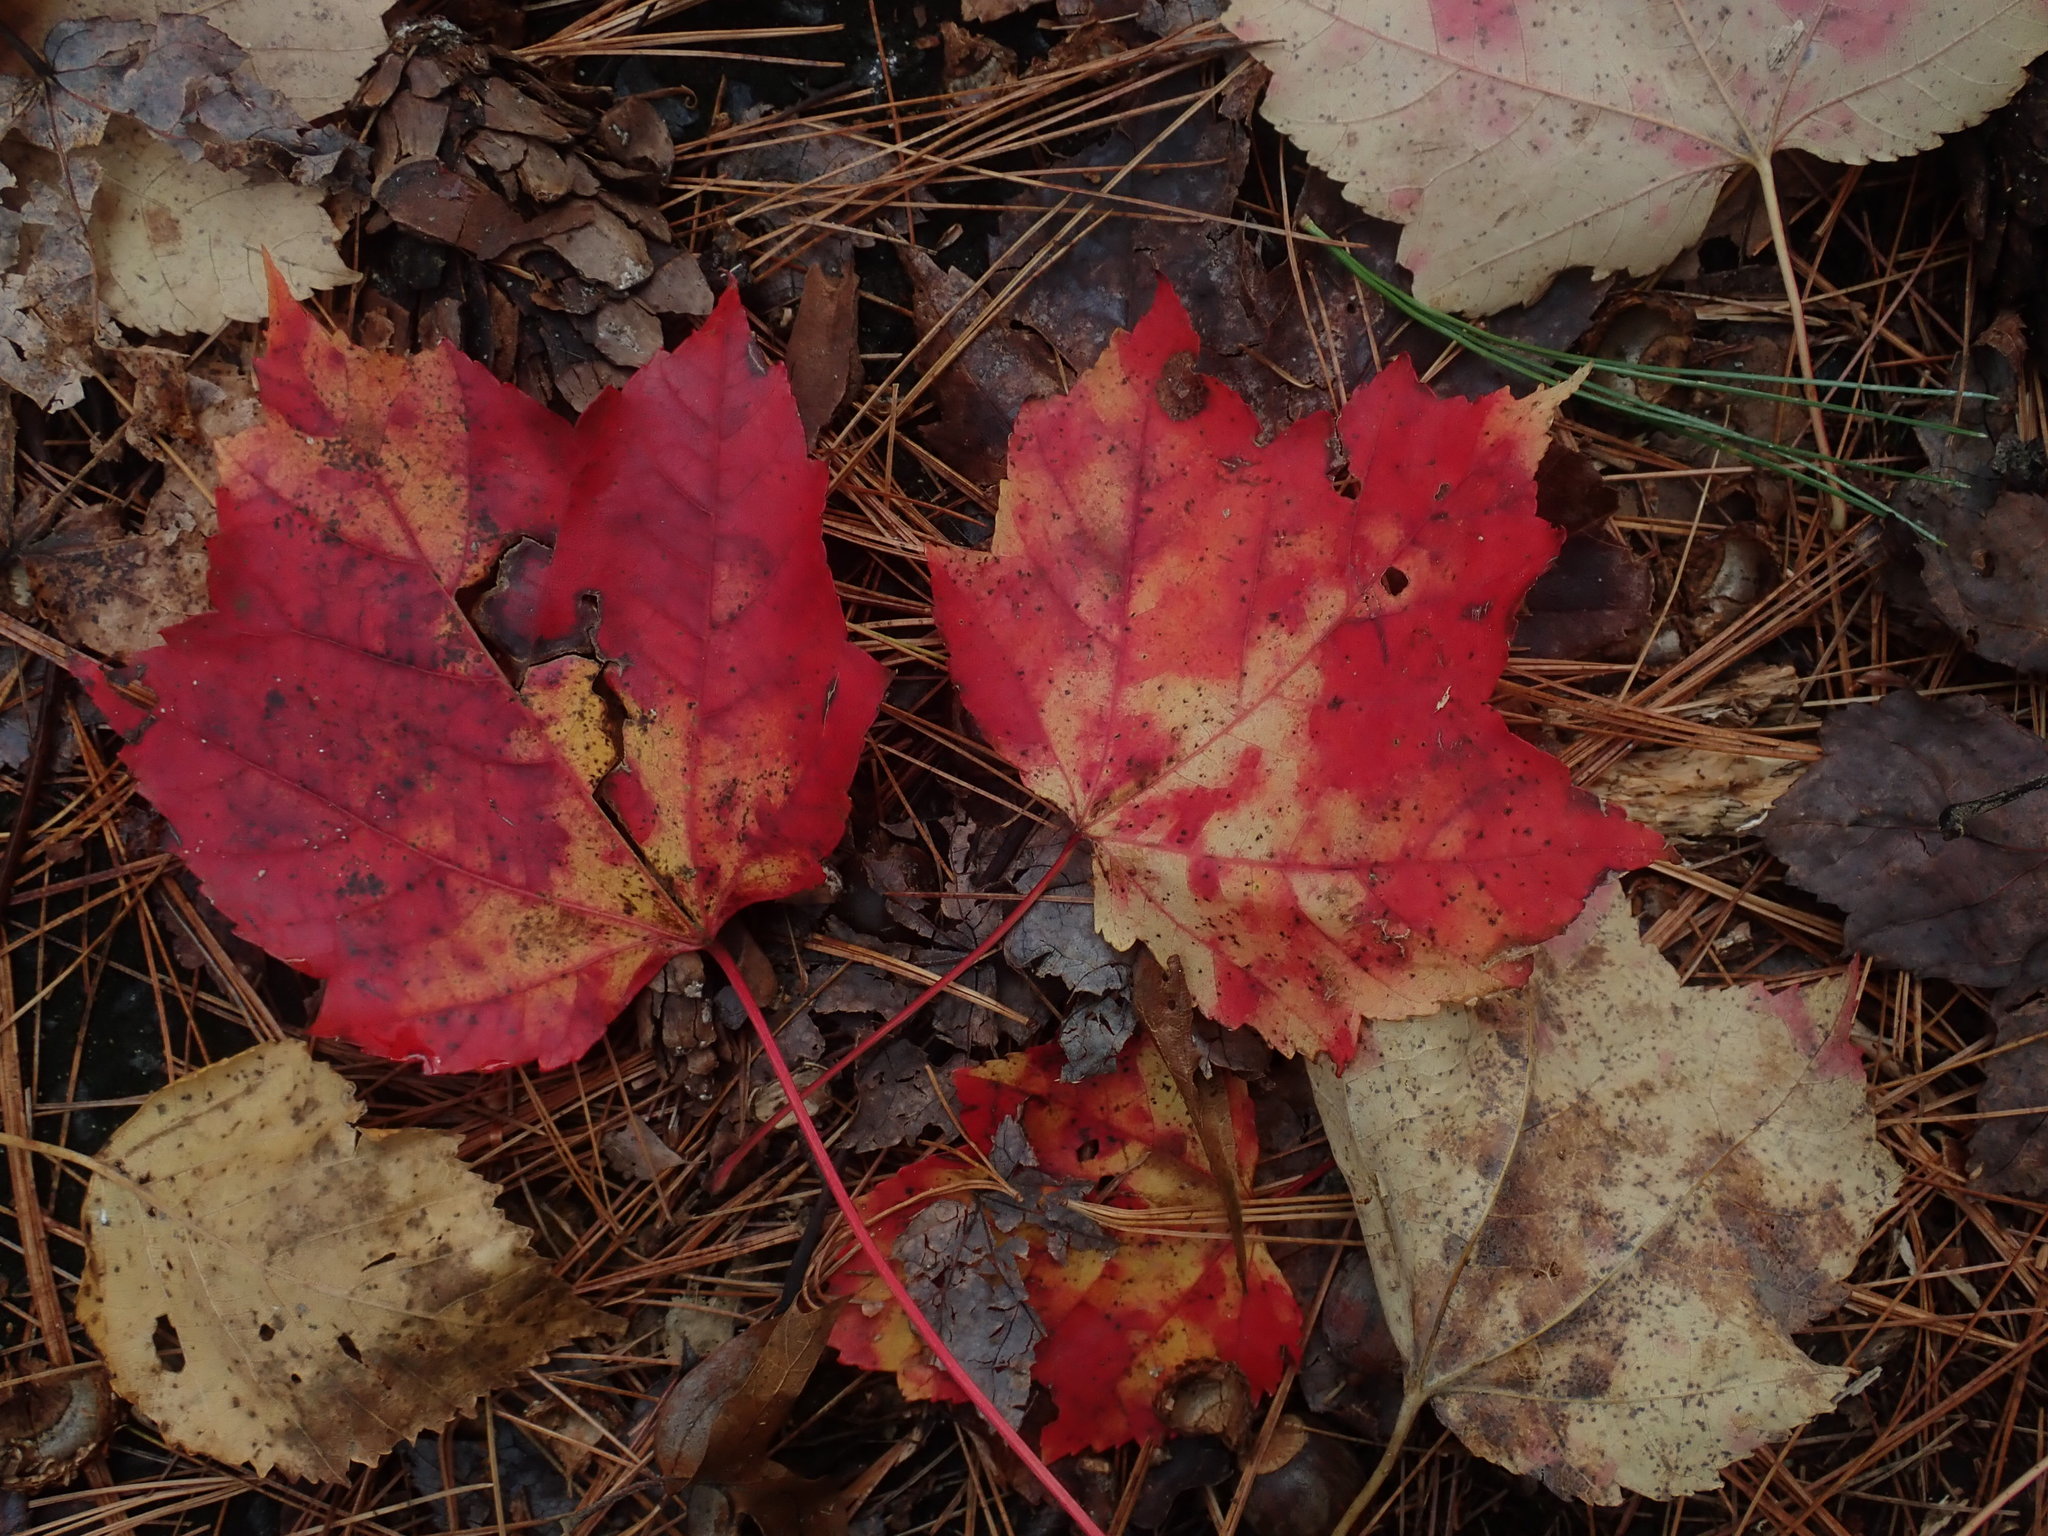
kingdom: Plantae
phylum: Tracheophyta
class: Magnoliopsida
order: Sapindales
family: Sapindaceae
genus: Acer
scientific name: Acer rubrum
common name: Red maple
